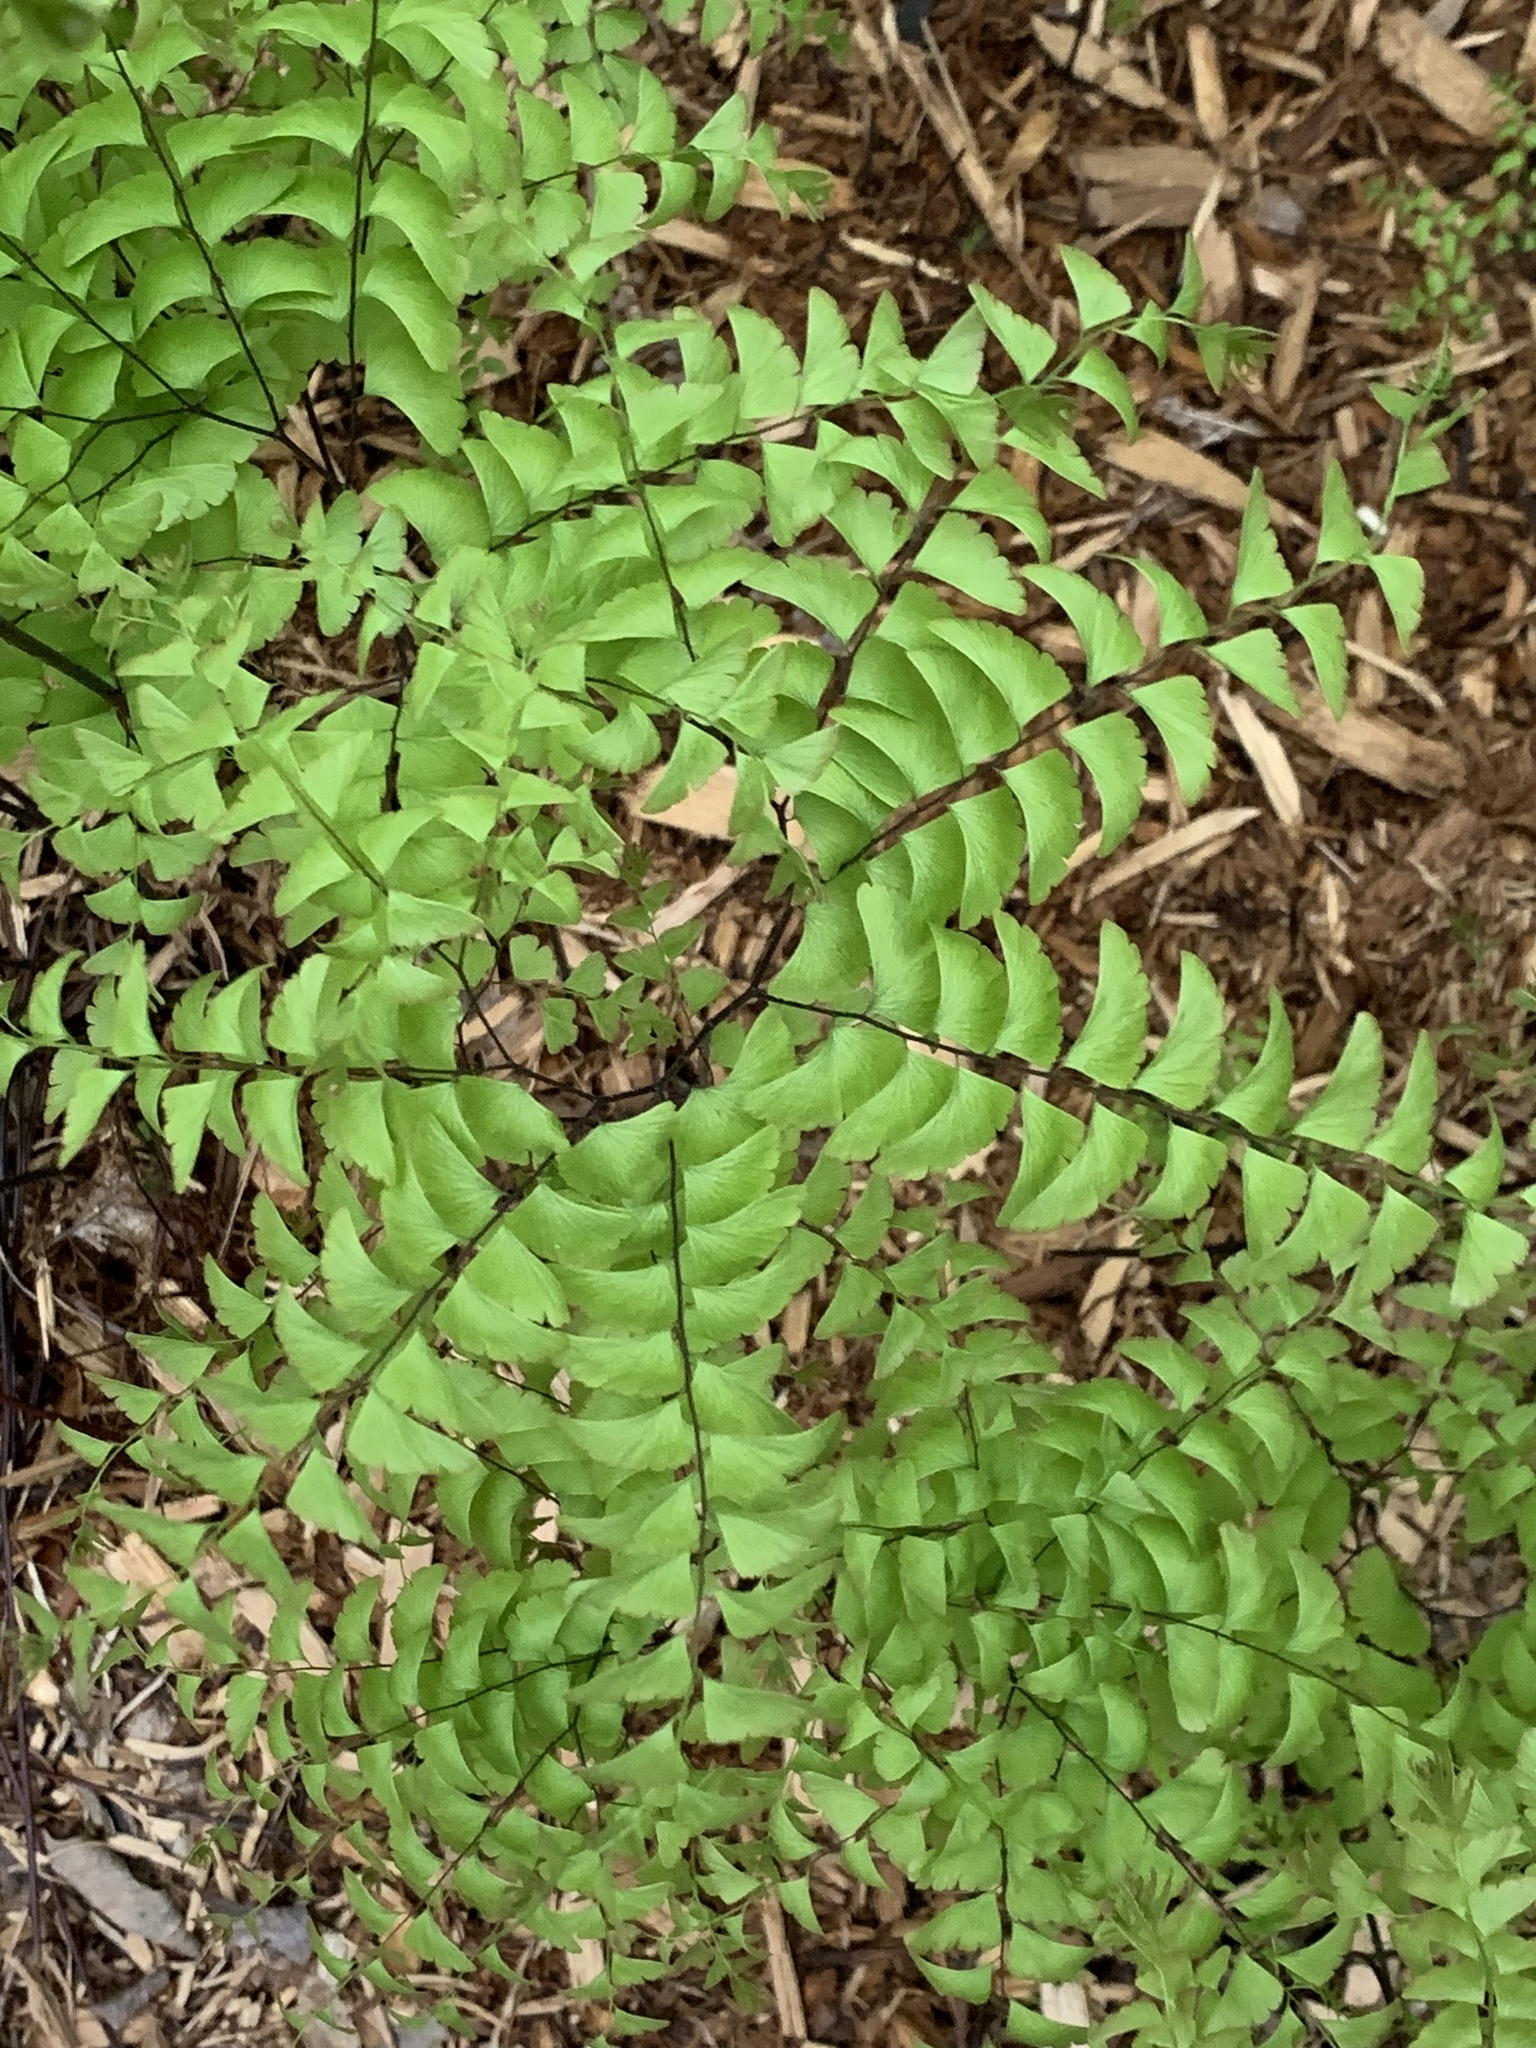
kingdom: Plantae
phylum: Tracheophyta
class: Polypodiopsida
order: Polypodiales
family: Pteridaceae
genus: Adiantum
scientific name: Adiantum pedatum
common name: Five-finger fern
